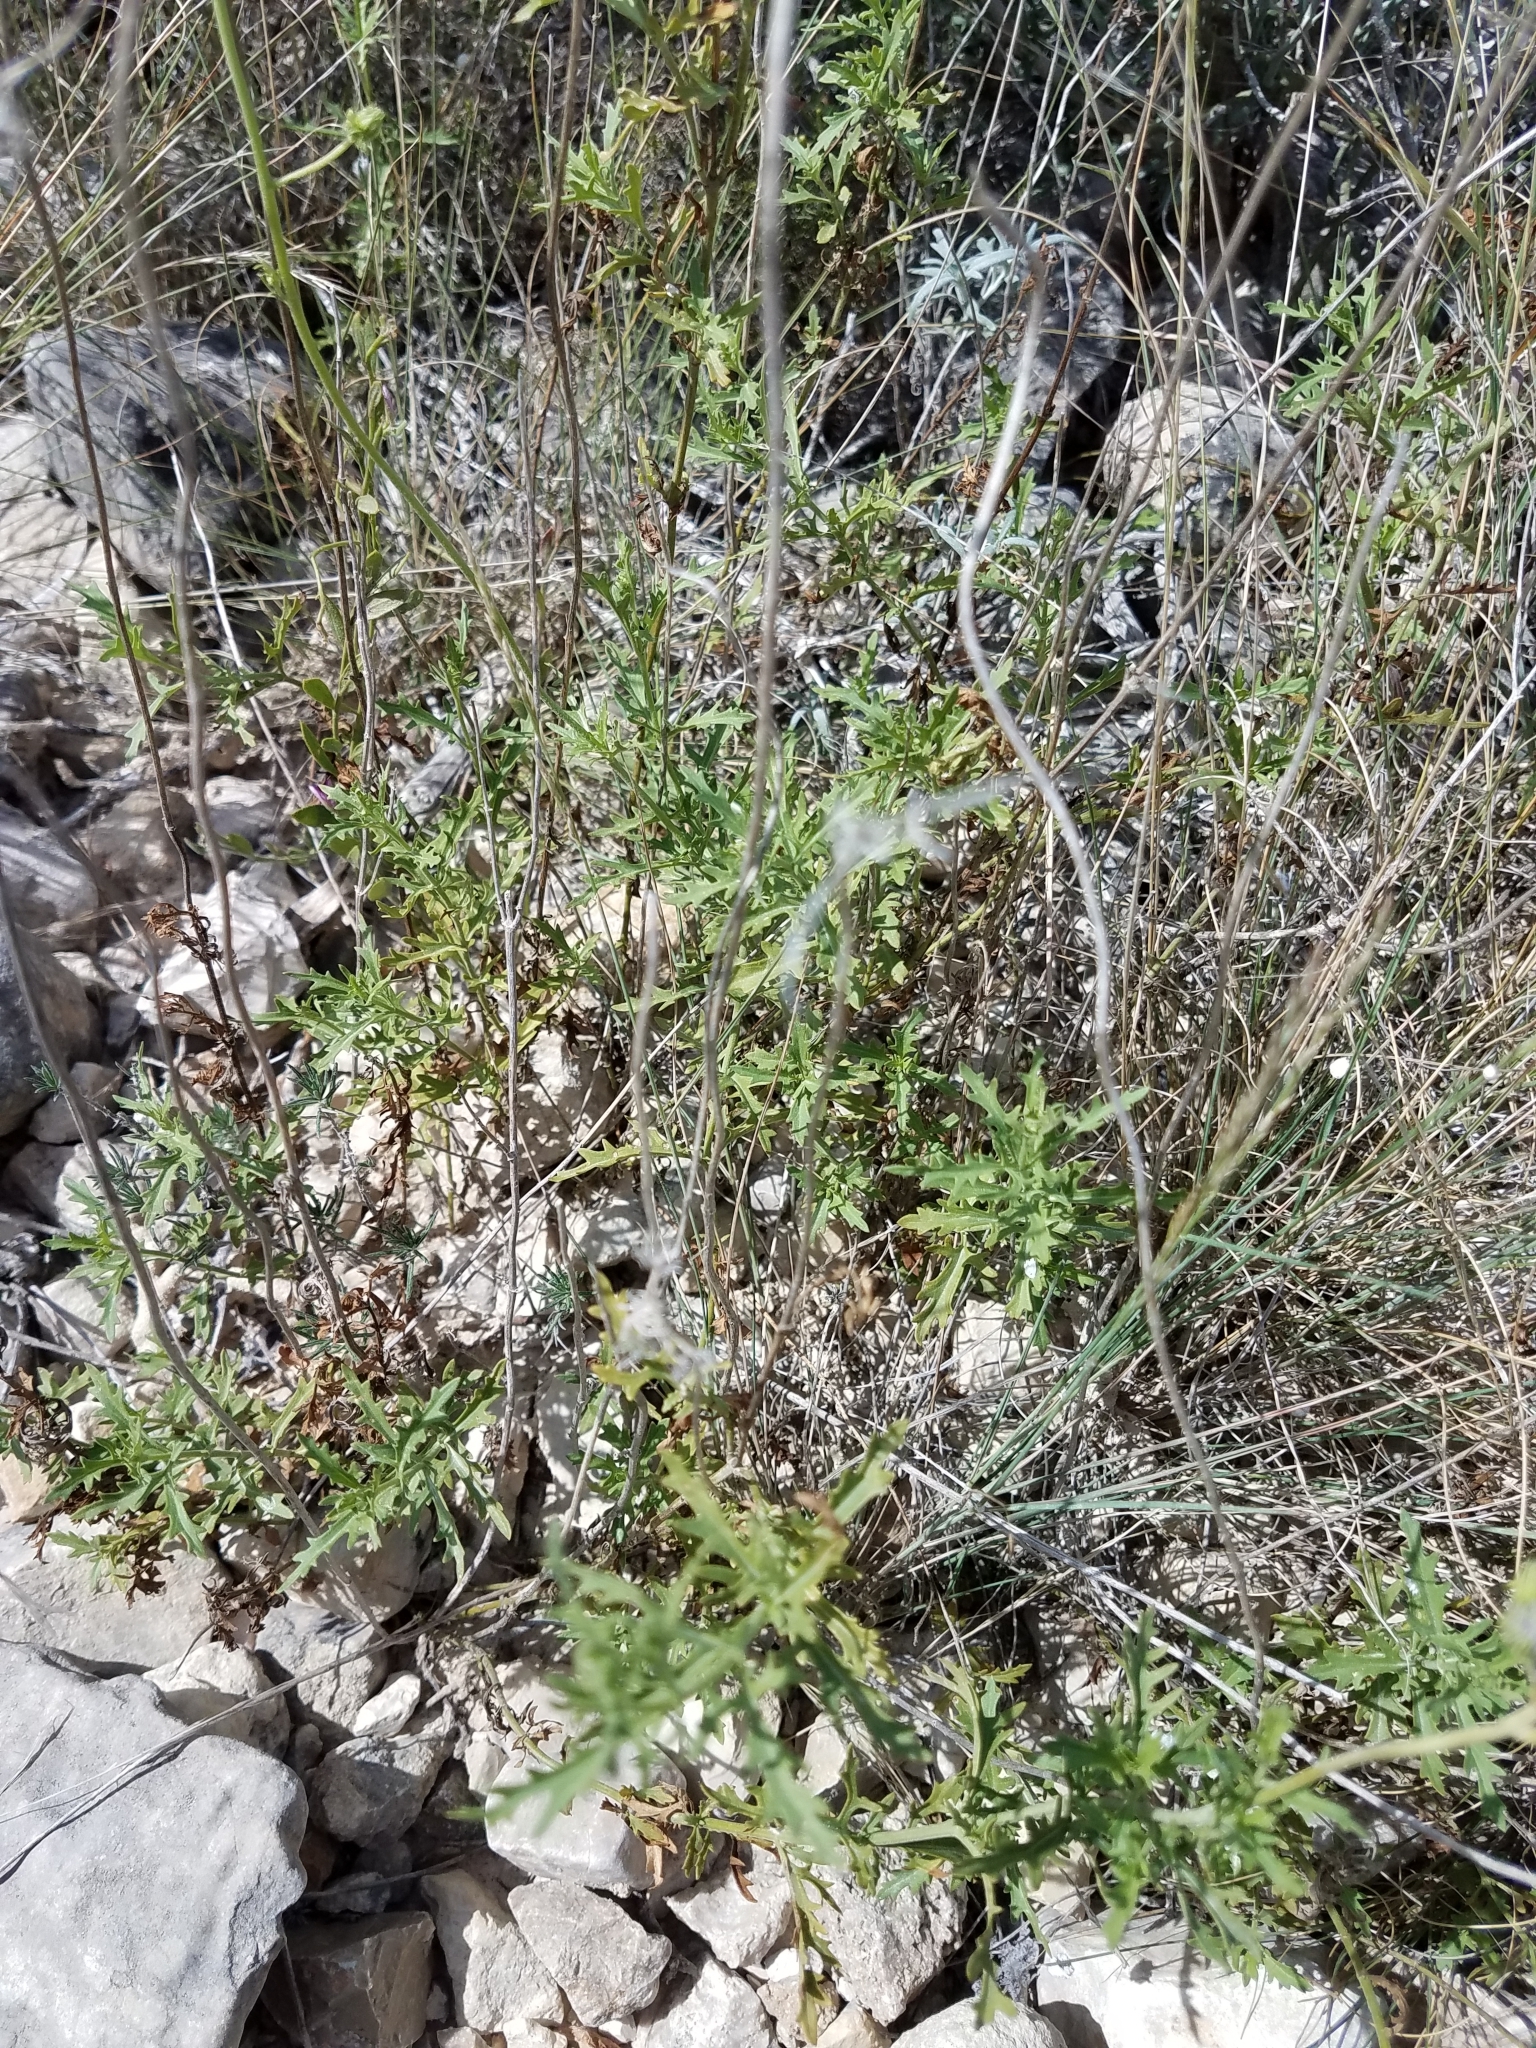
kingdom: Plantae
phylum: Tracheophyta
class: Magnoliopsida
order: Asterales
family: Asteraceae
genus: Conoclinium
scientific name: Conoclinium dissectum
